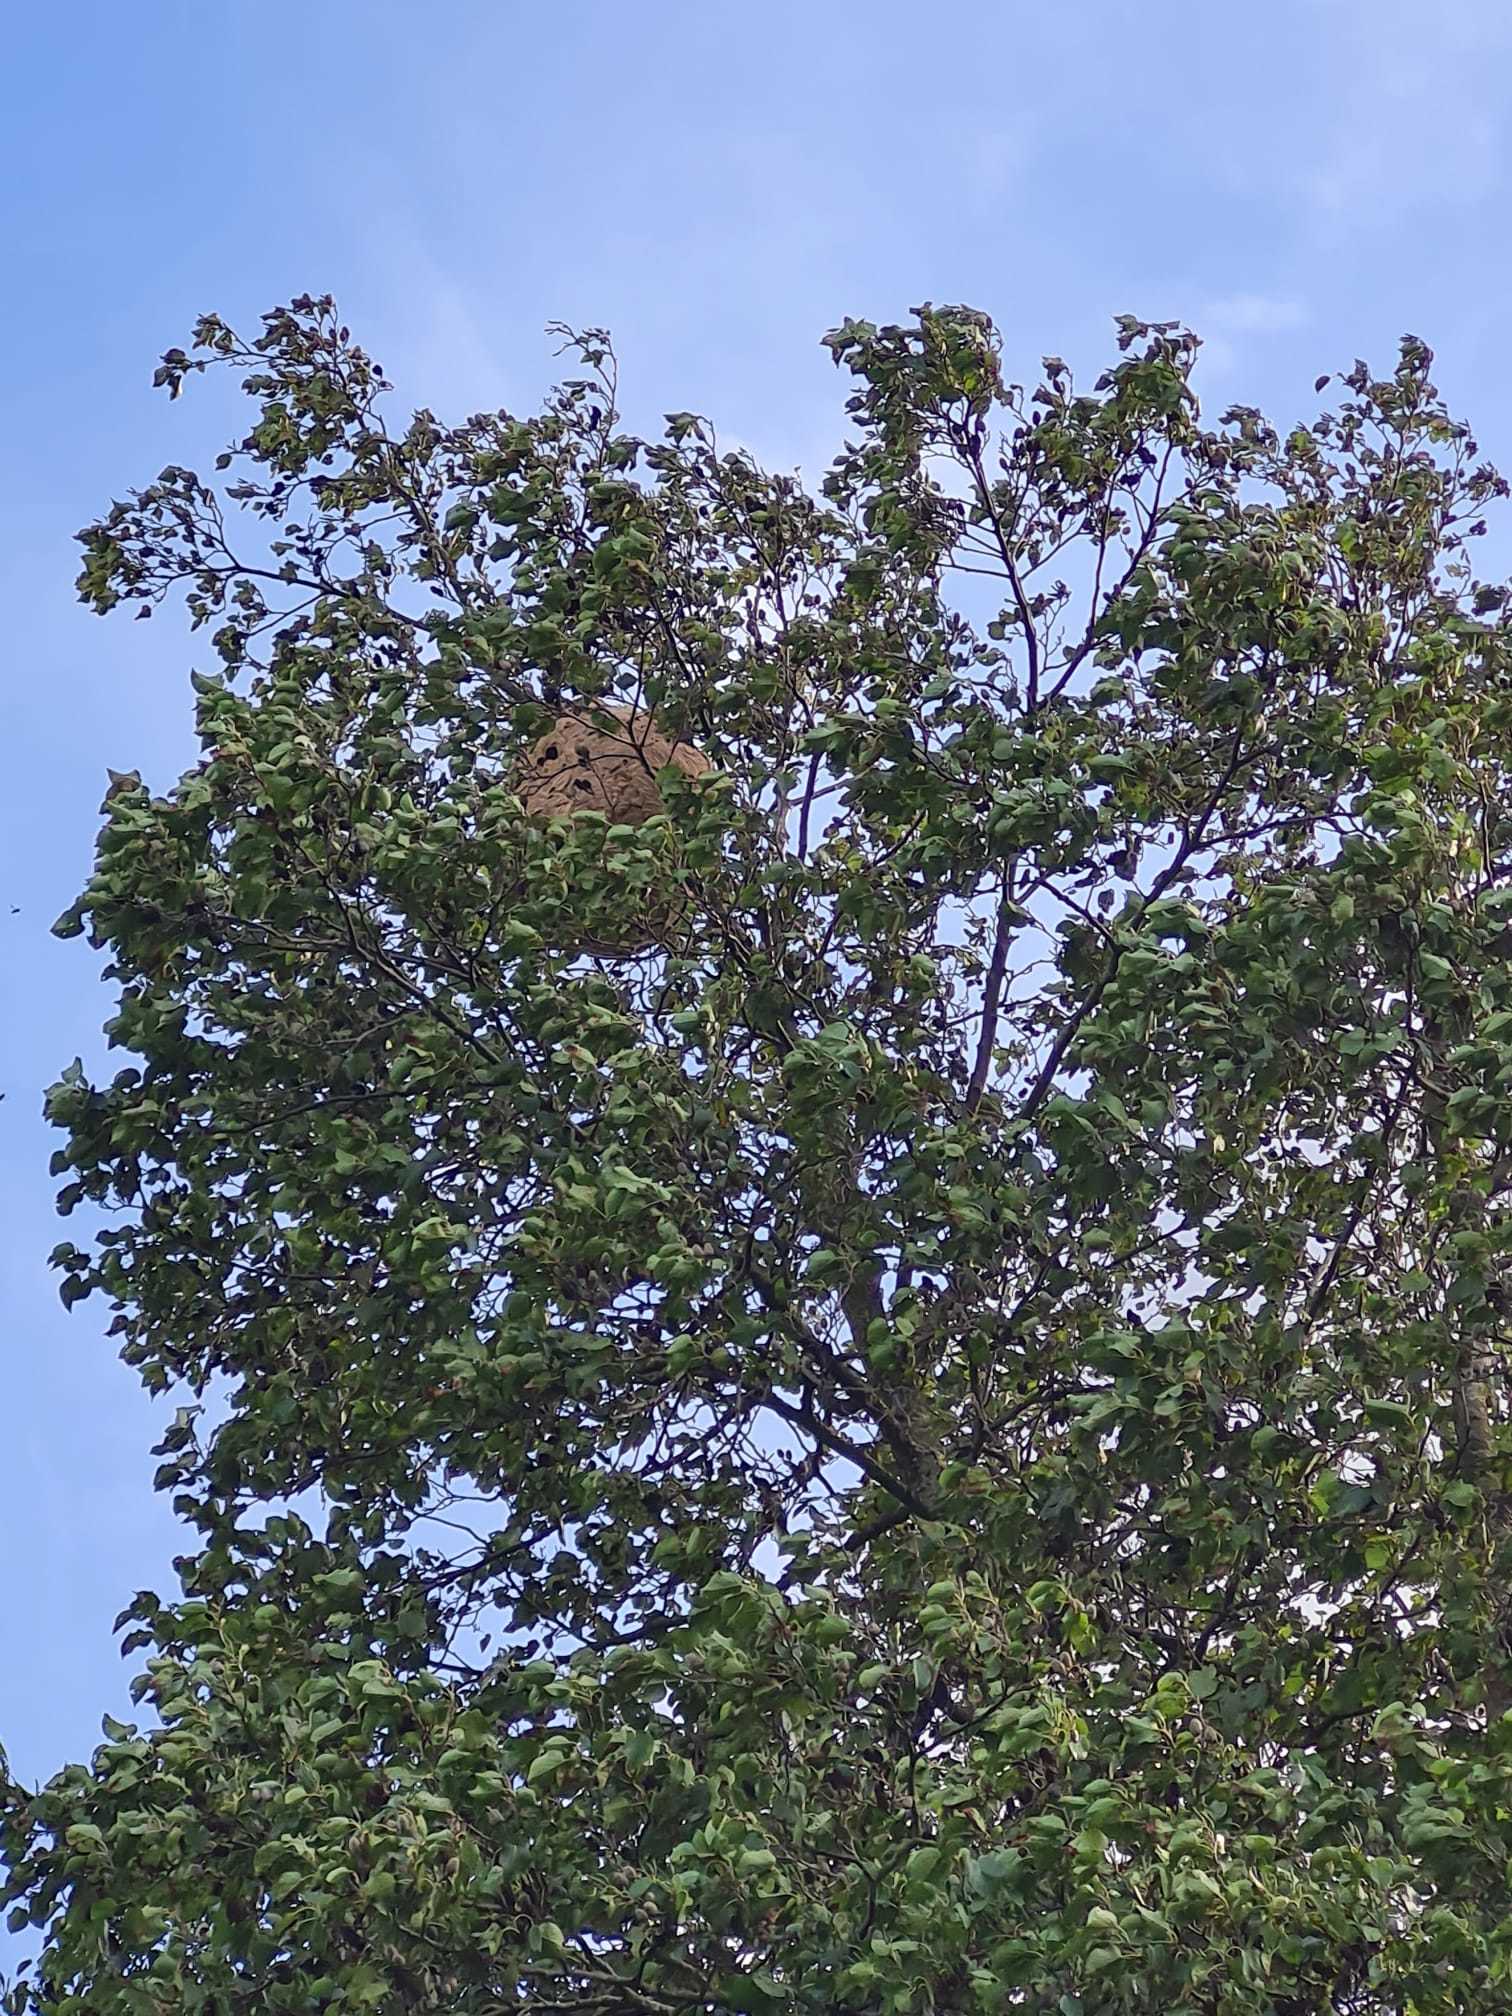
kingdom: Animalia
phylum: Arthropoda
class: Insecta
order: Hymenoptera
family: Vespidae
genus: Vespa
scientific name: Vespa velutina
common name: Asian hornet
